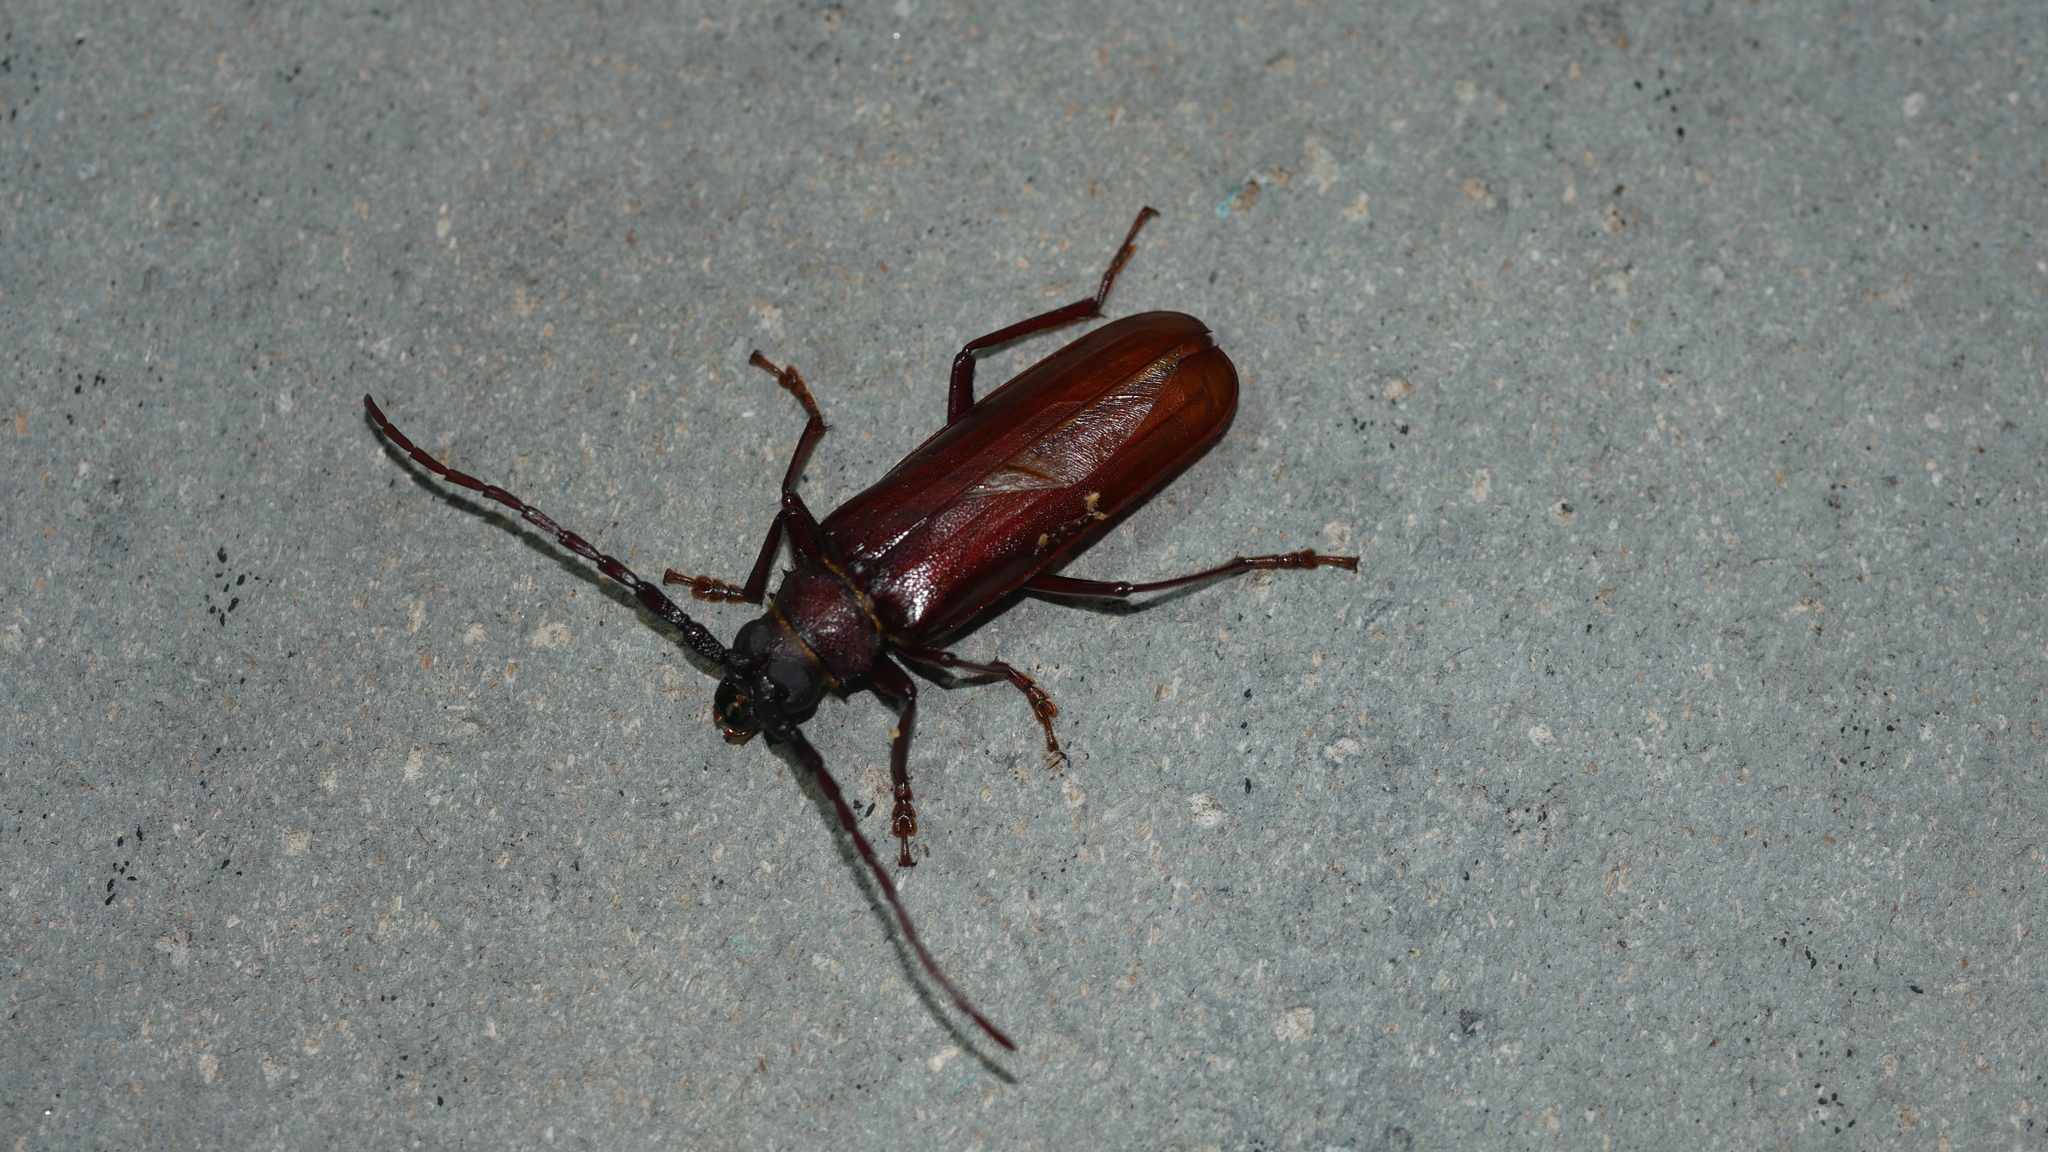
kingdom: Animalia
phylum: Arthropoda
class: Insecta
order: Coleoptera
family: Cerambycidae
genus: Orthosoma
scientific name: Orthosoma brunneum
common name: Brown prionid beetle
